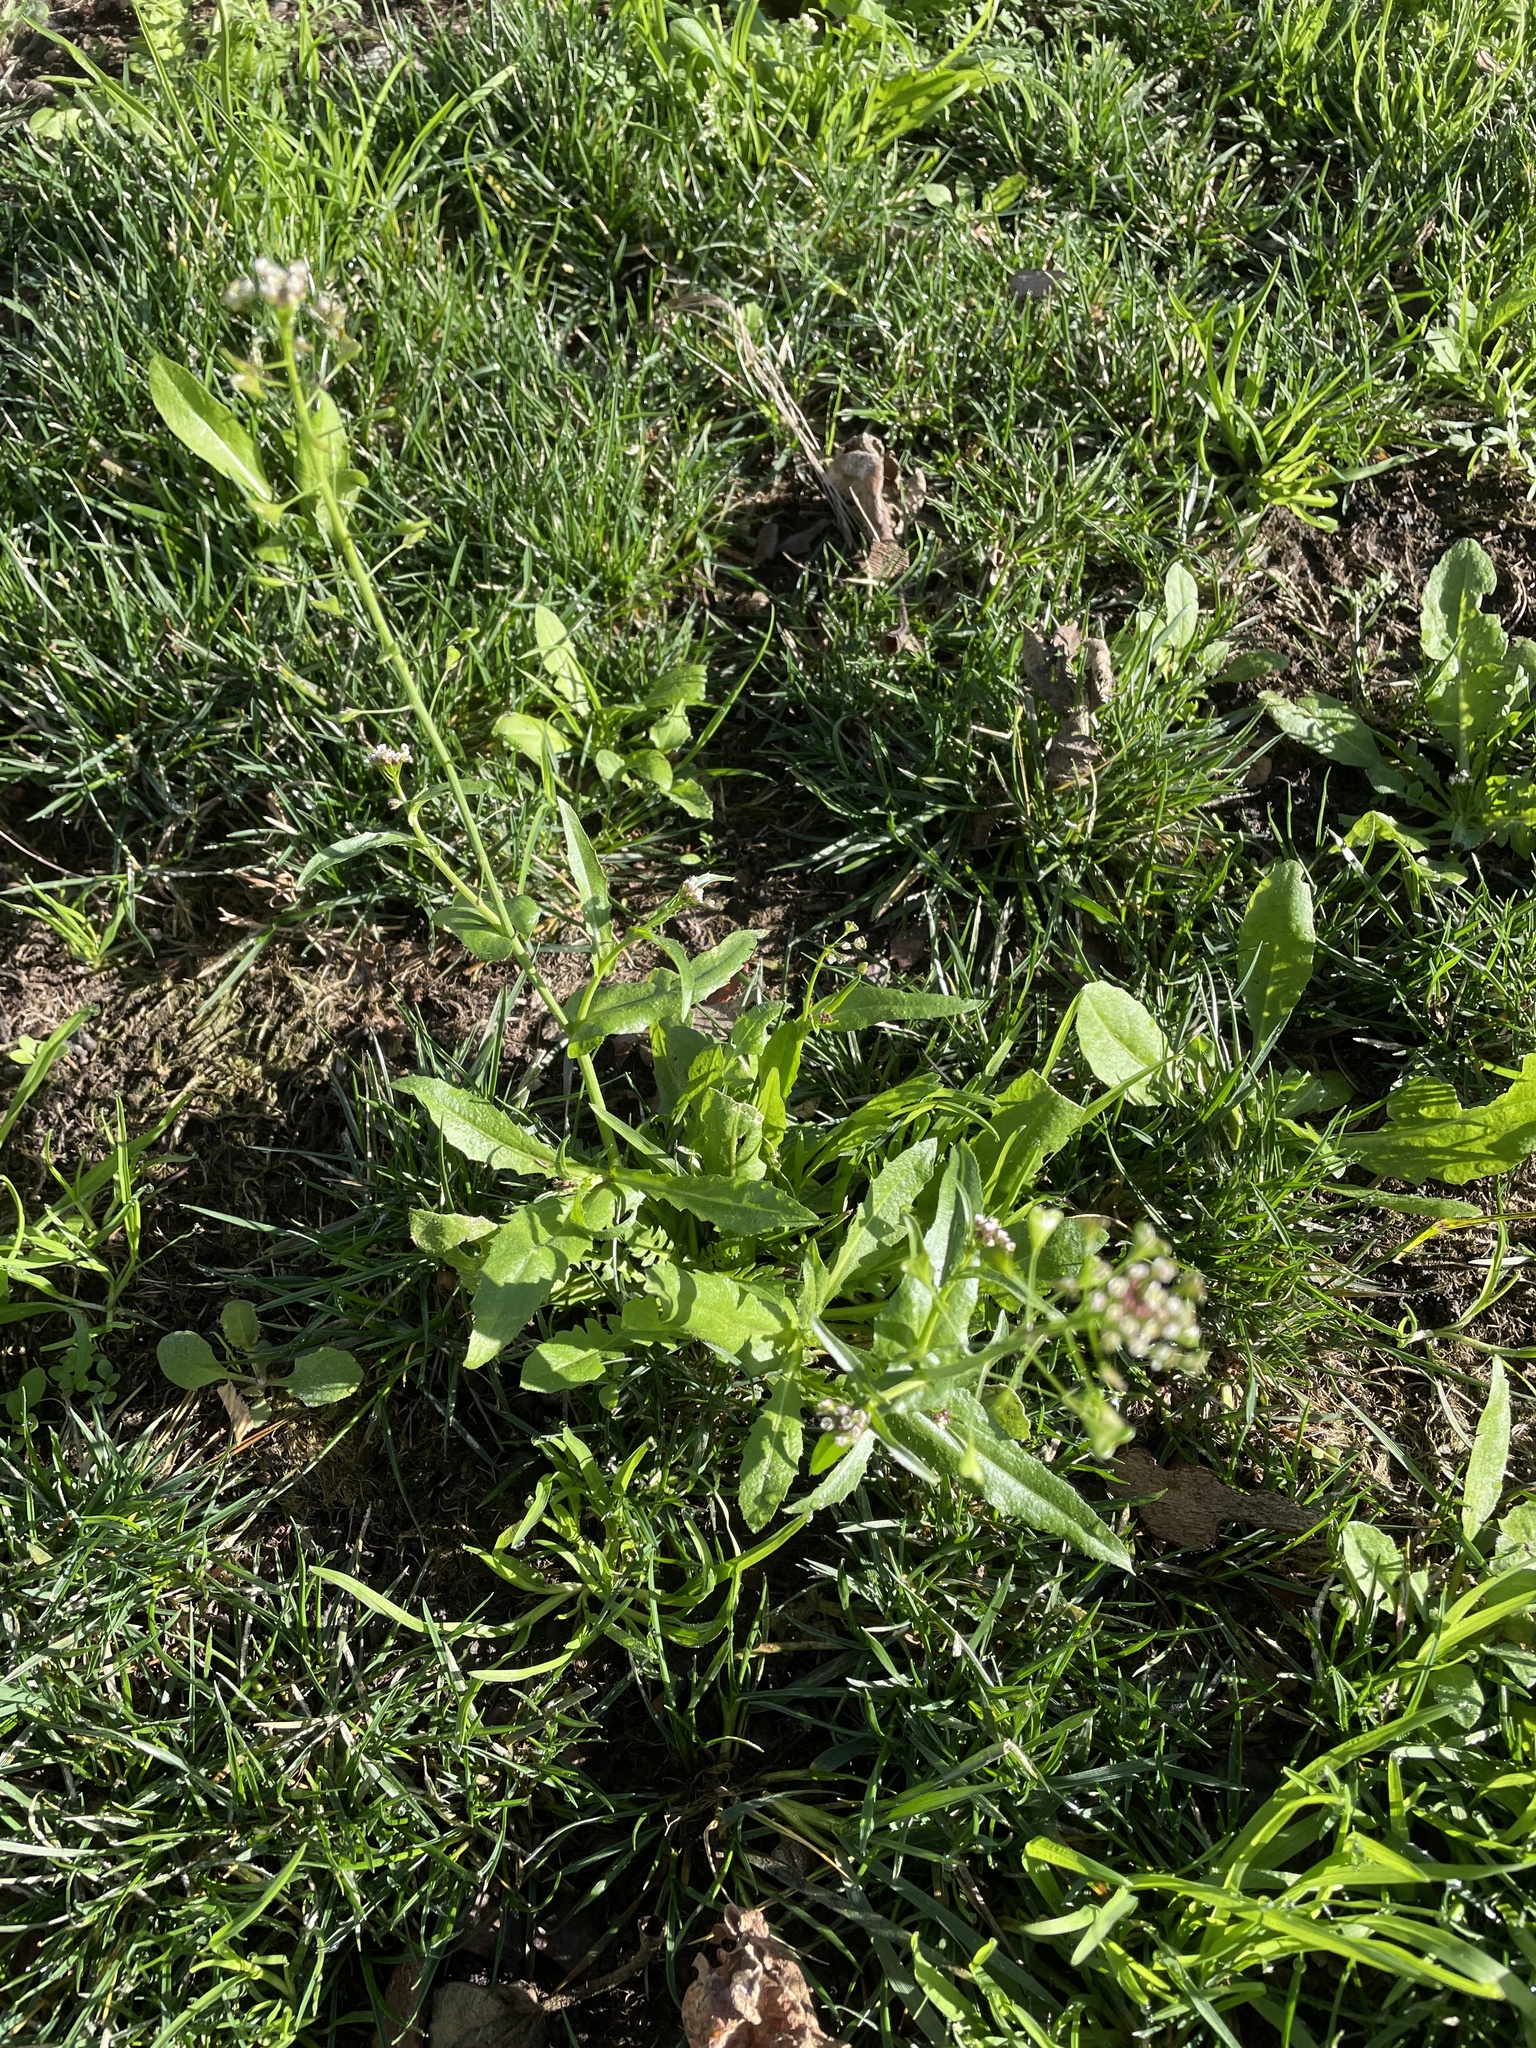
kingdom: Plantae
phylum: Tracheophyta
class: Magnoliopsida
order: Brassicales
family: Brassicaceae
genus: Capsella
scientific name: Capsella bursa-pastoris
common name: Shepherd's purse
